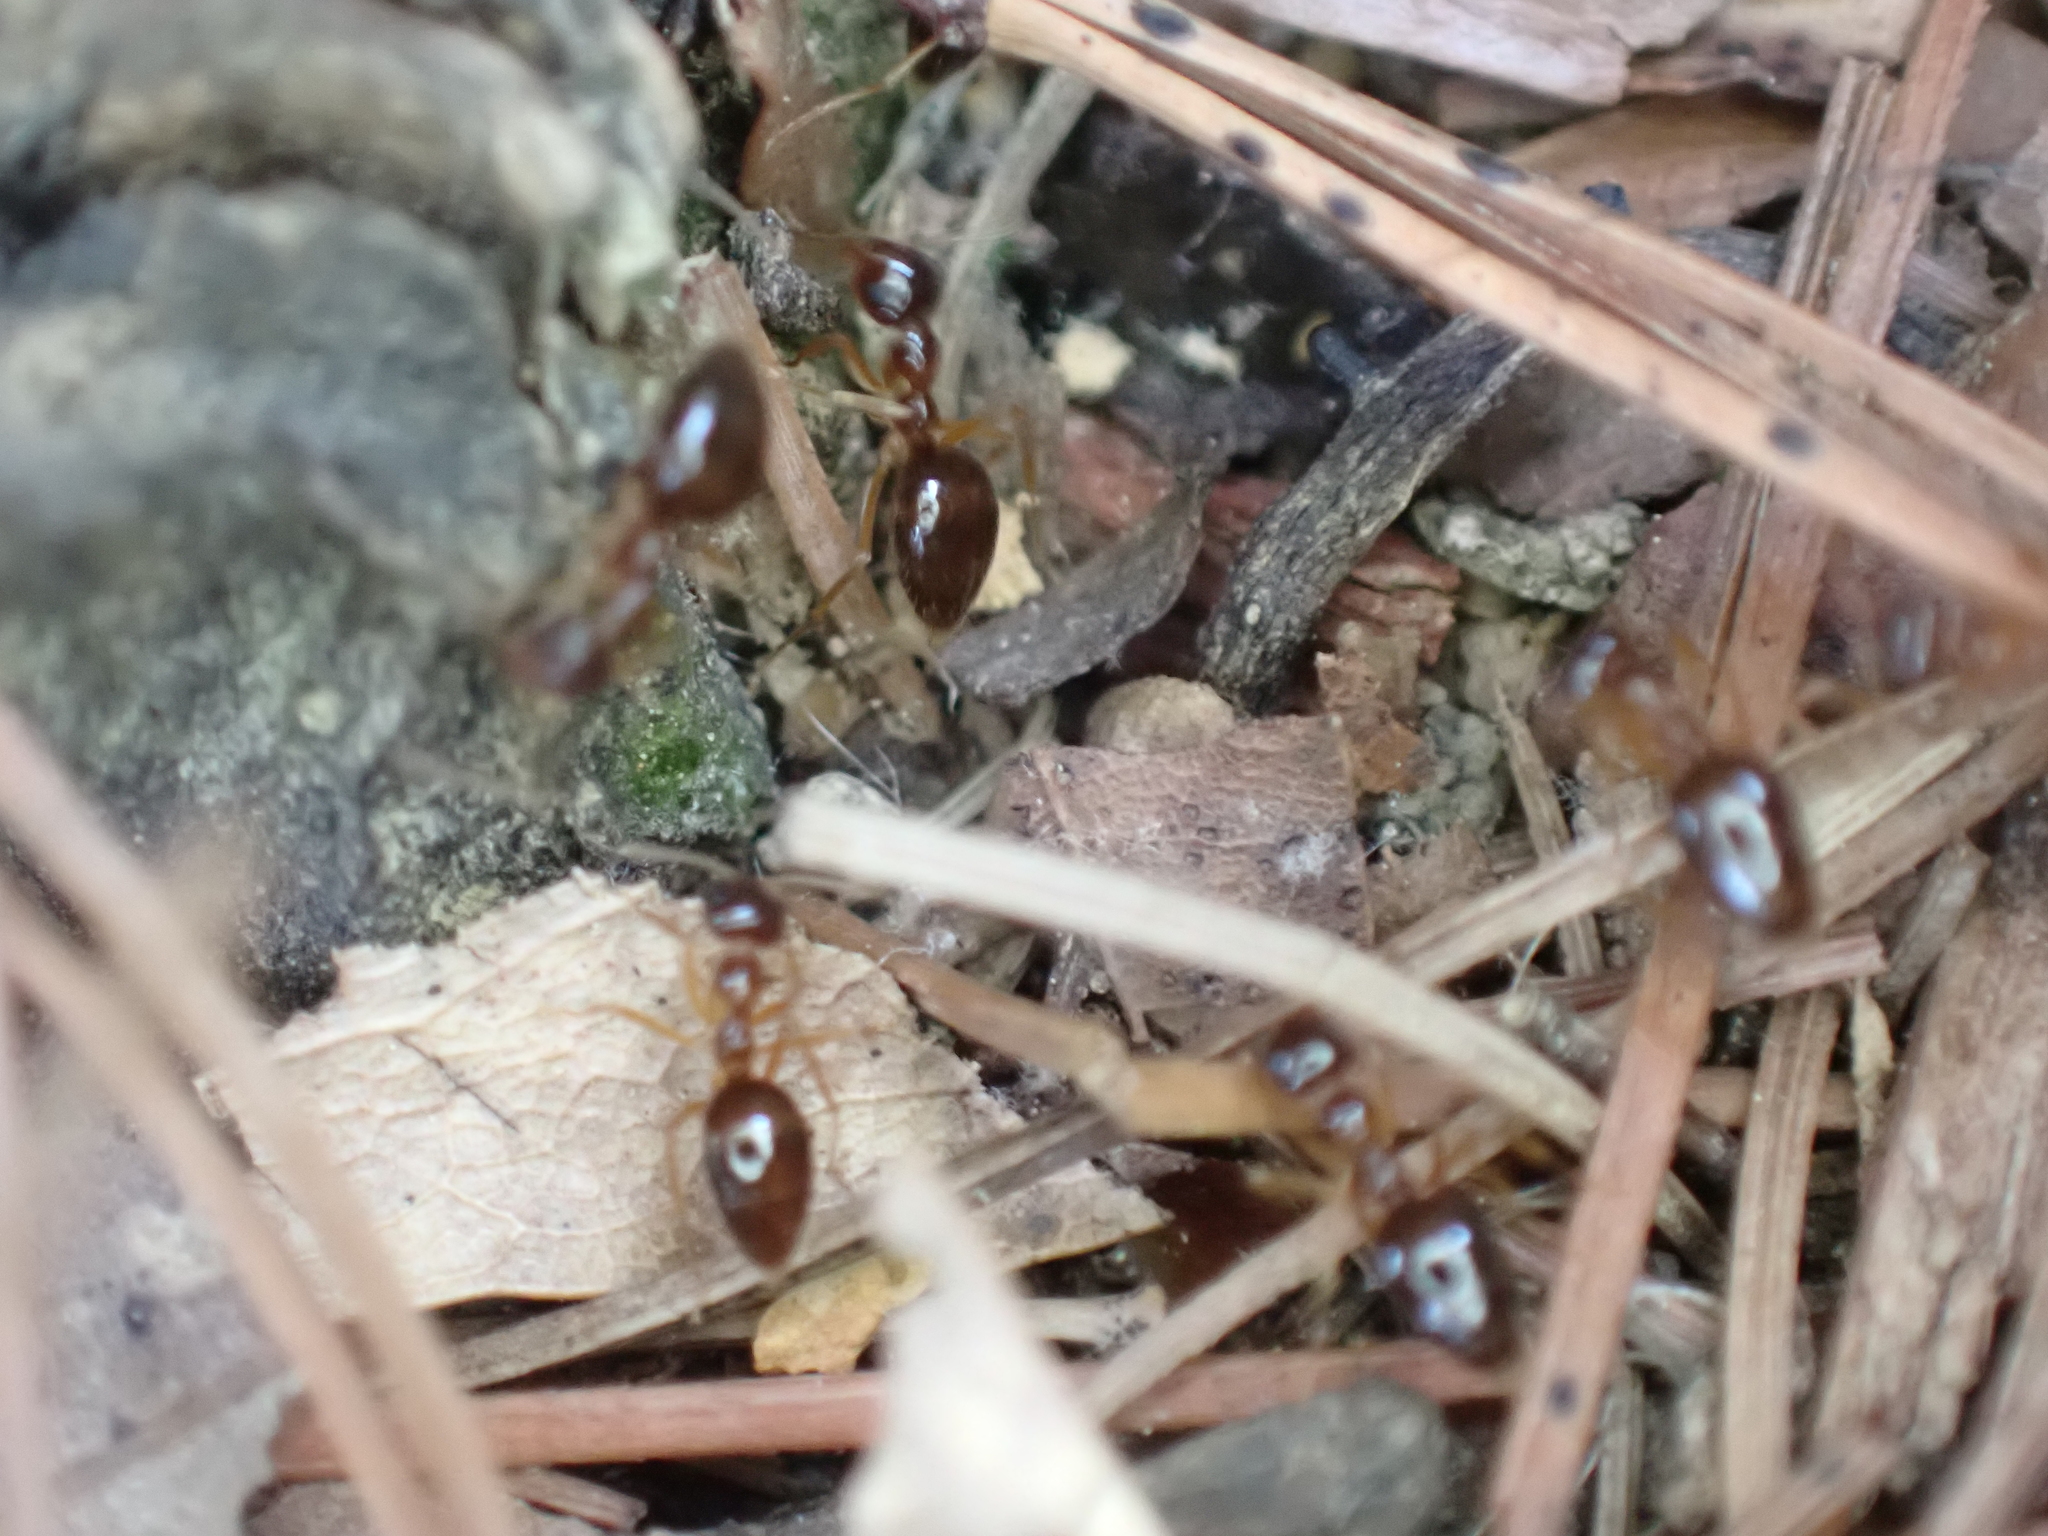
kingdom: Animalia
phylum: Arthropoda
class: Insecta
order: Hymenoptera
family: Formicidae
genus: Prenolepis
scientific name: Prenolepis imparis
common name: Small honey ant
